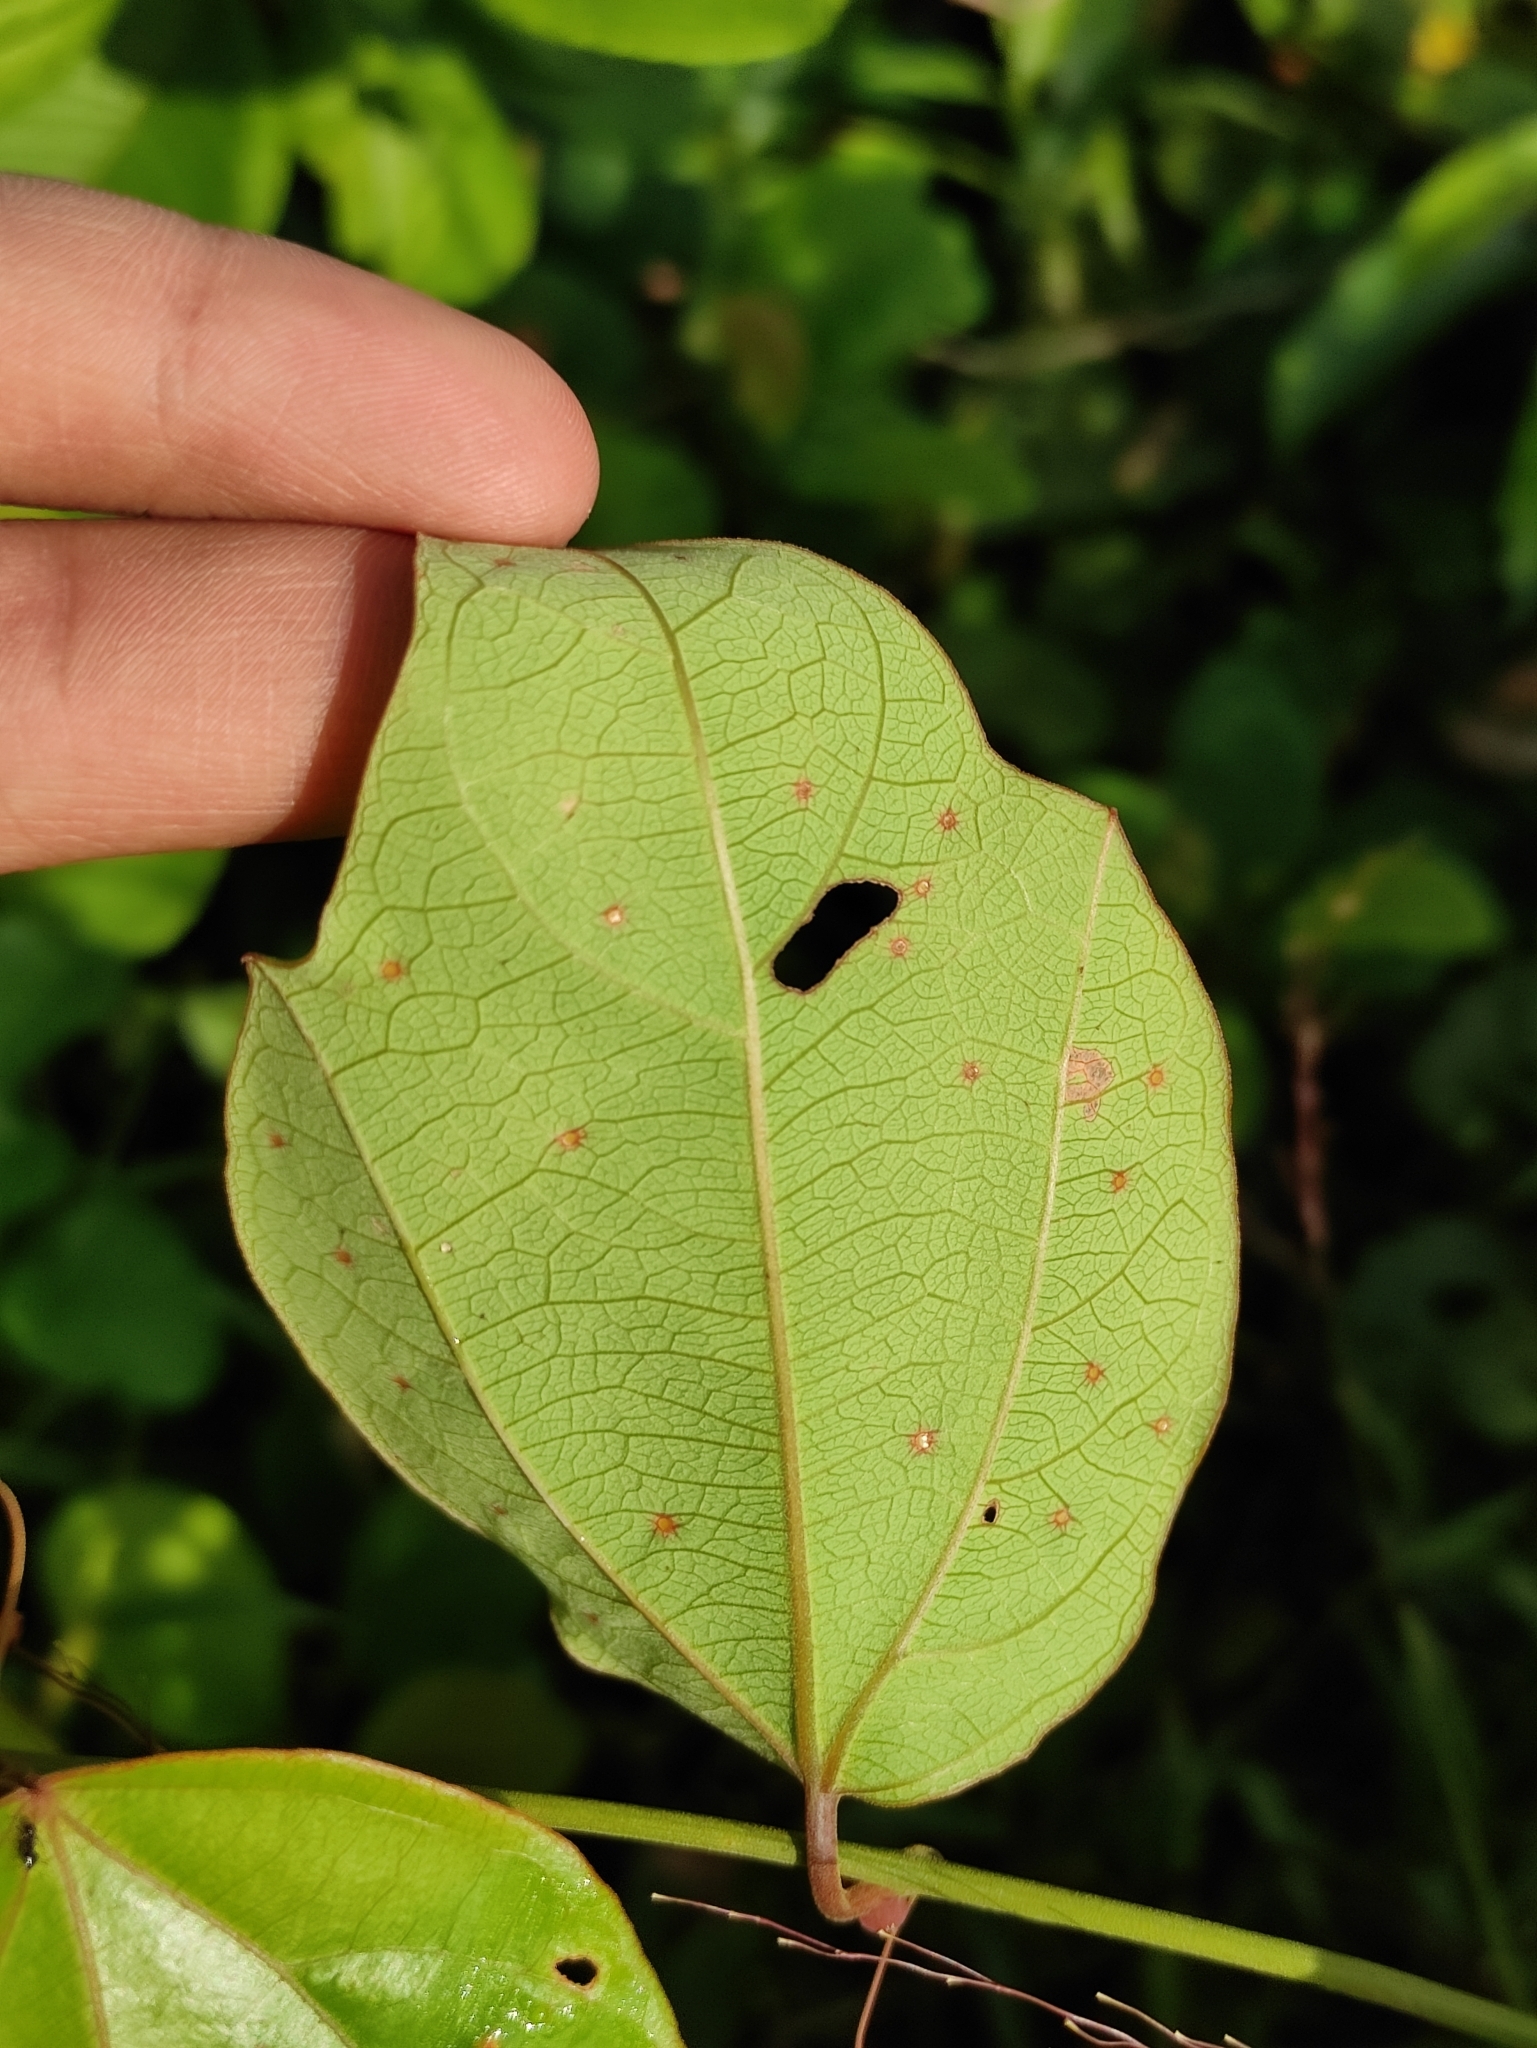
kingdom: Plantae
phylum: Tracheophyta
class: Magnoliopsida
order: Malpighiales
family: Passifloraceae
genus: Passiflora
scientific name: Passiflora auriculata
